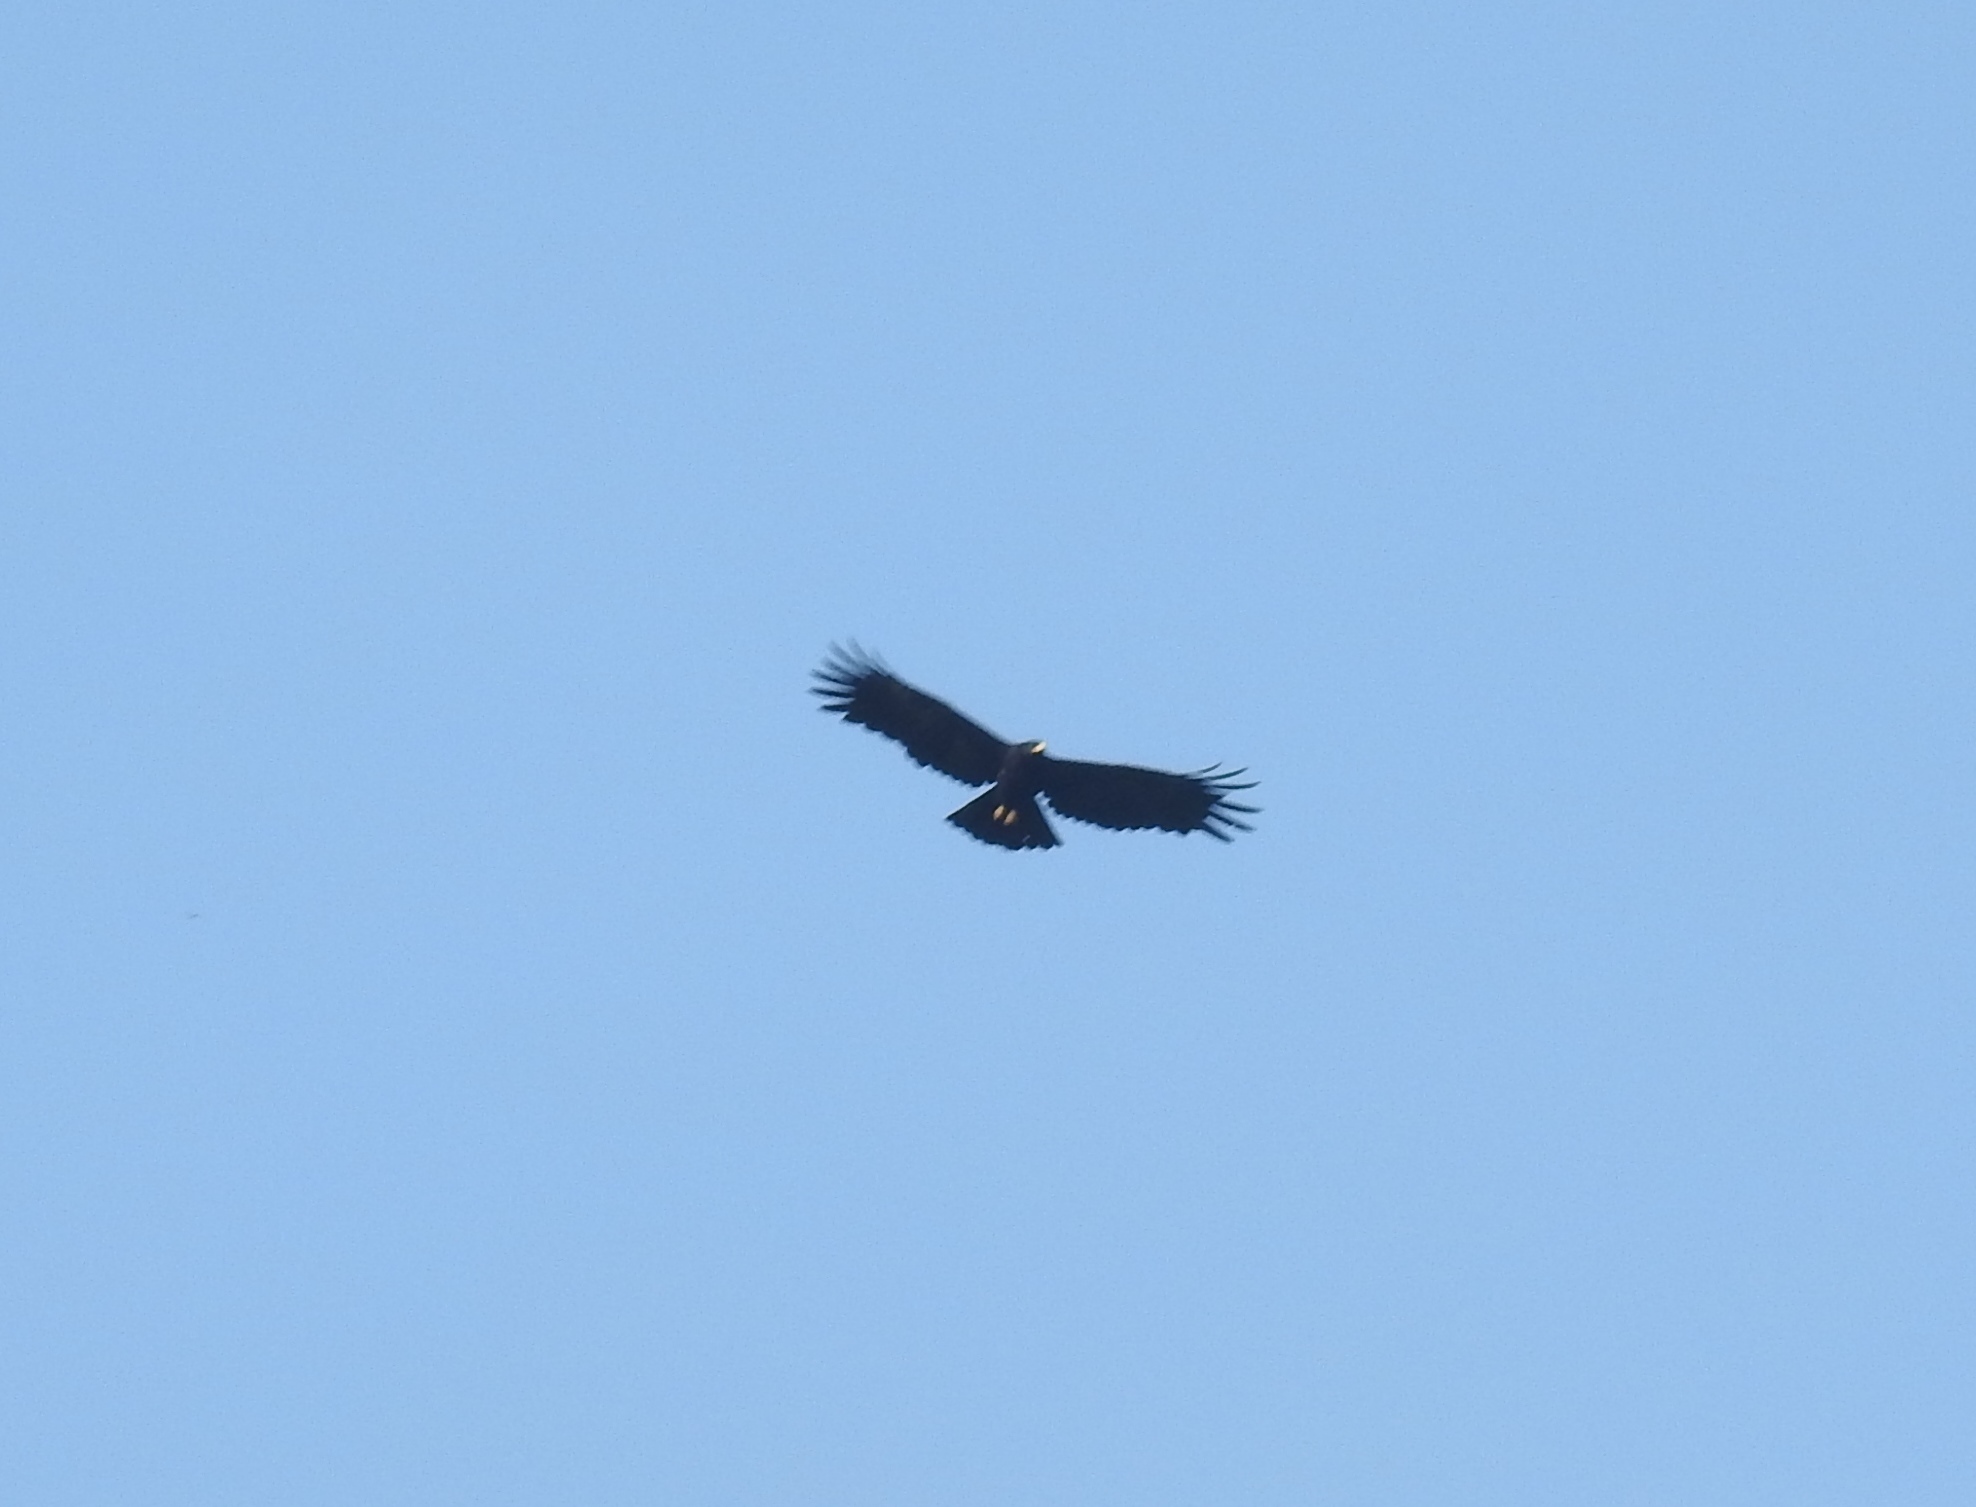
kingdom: Animalia
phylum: Chordata
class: Aves
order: Accipitriformes
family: Accipitridae
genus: Ictinaetus
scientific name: Ictinaetus malayensis
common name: Black eagle
